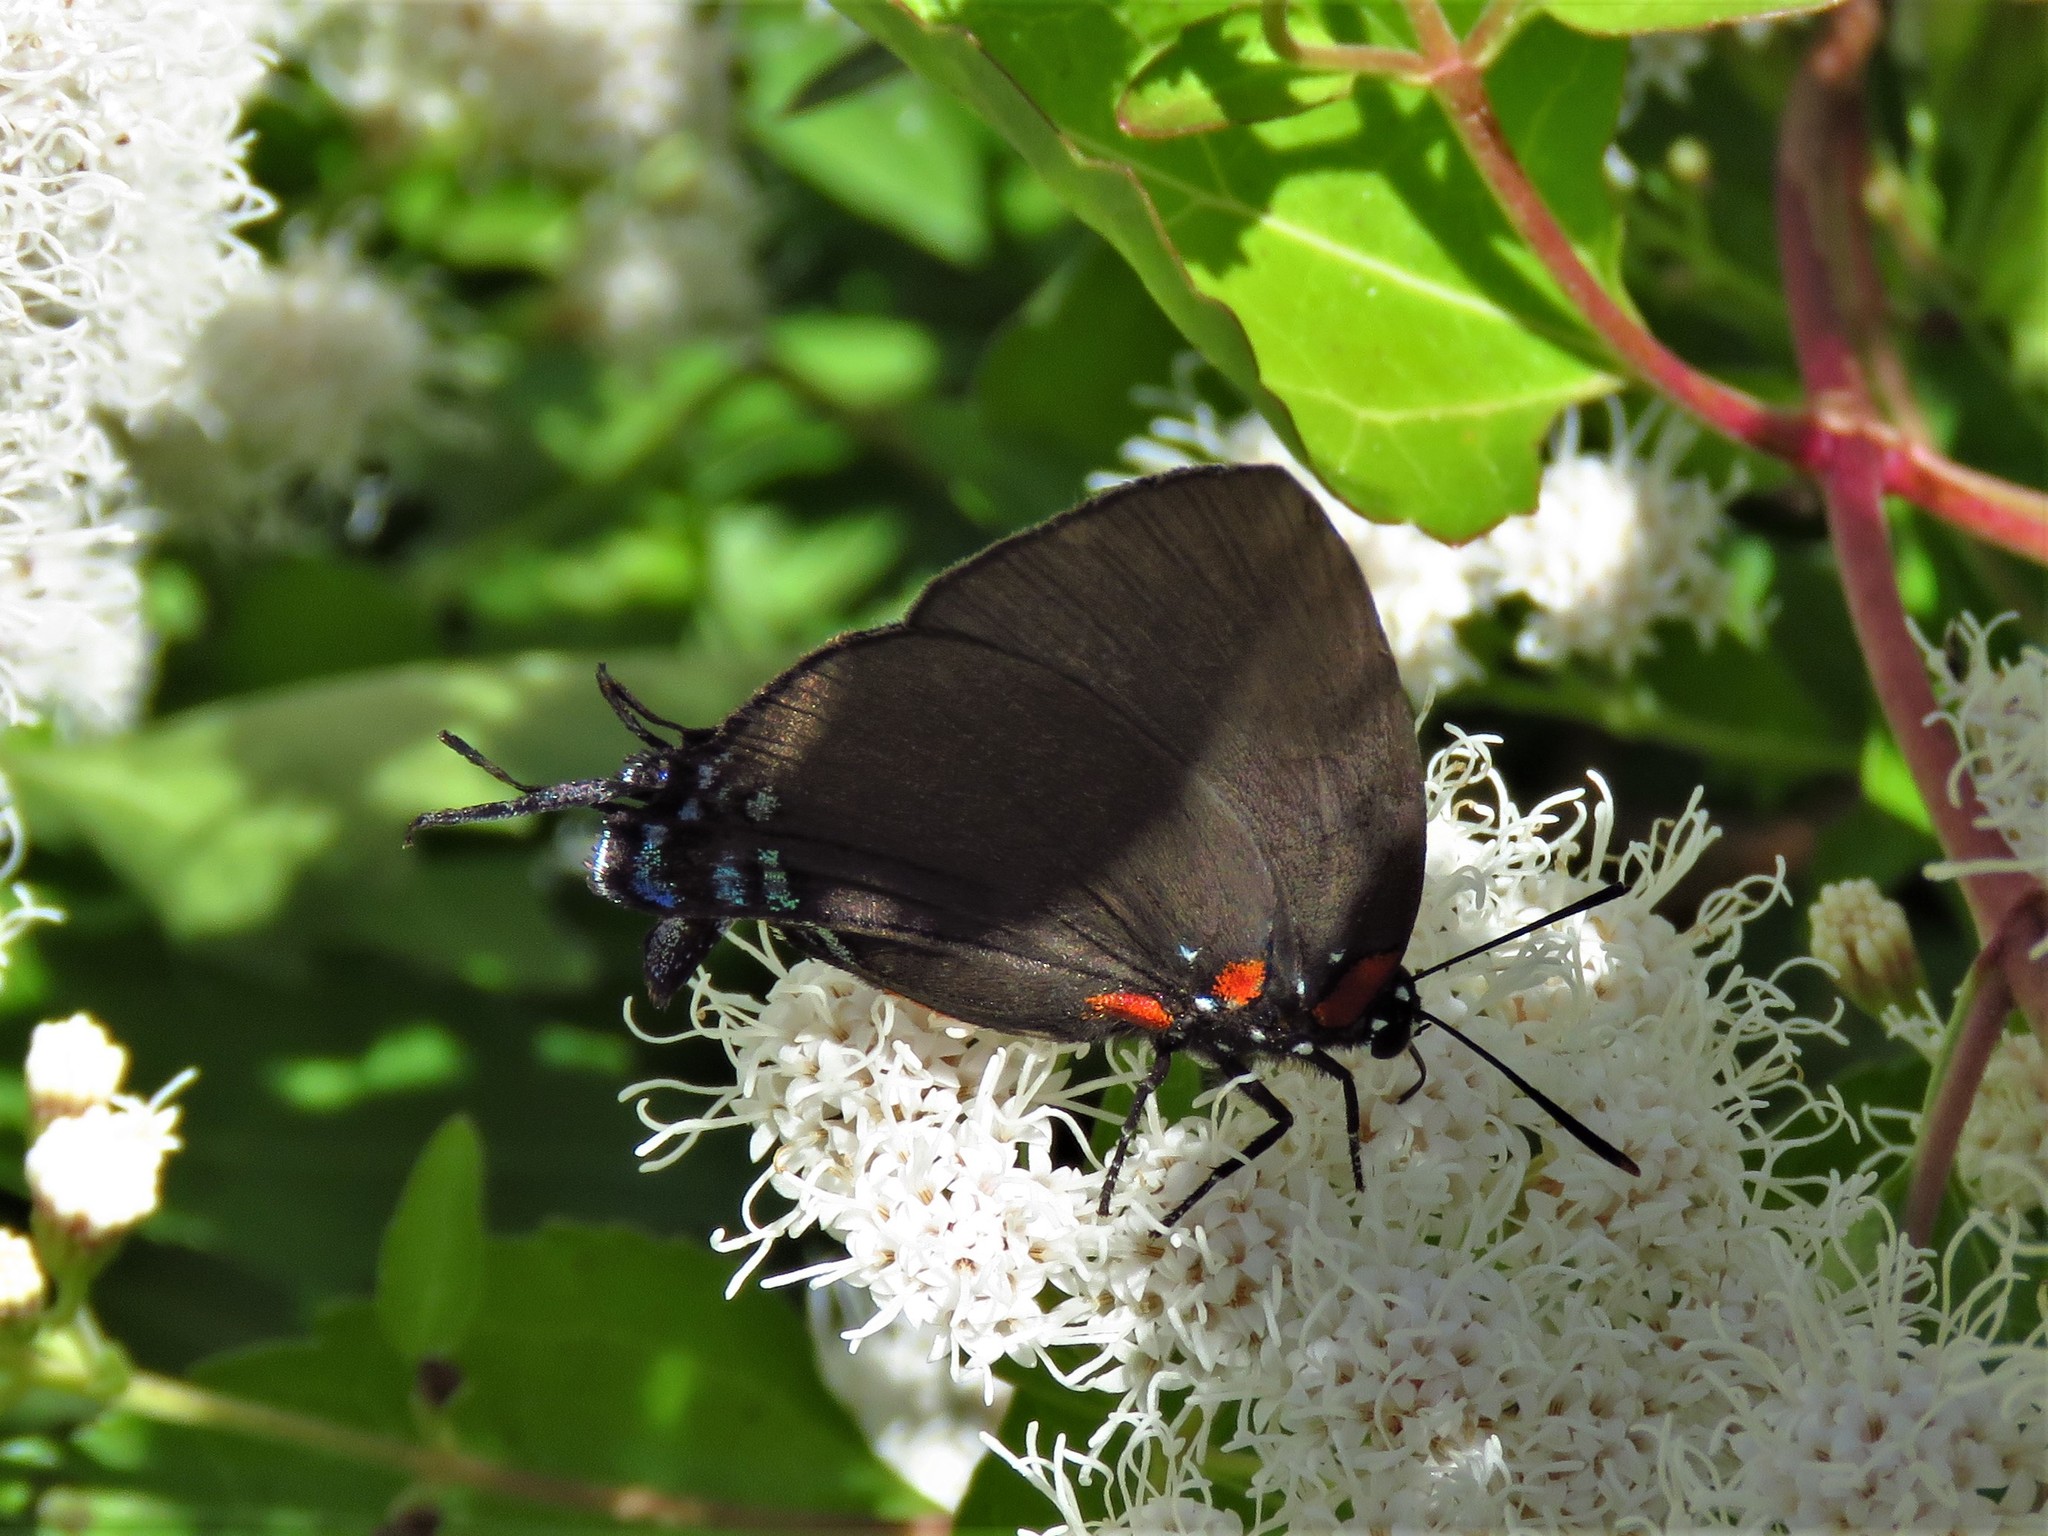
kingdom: Animalia
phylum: Arthropoda
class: Insecta
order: Lepidoptera
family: Lycaenidae
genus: Atlides
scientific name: Atlides halesus
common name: Great purple hairstreak
